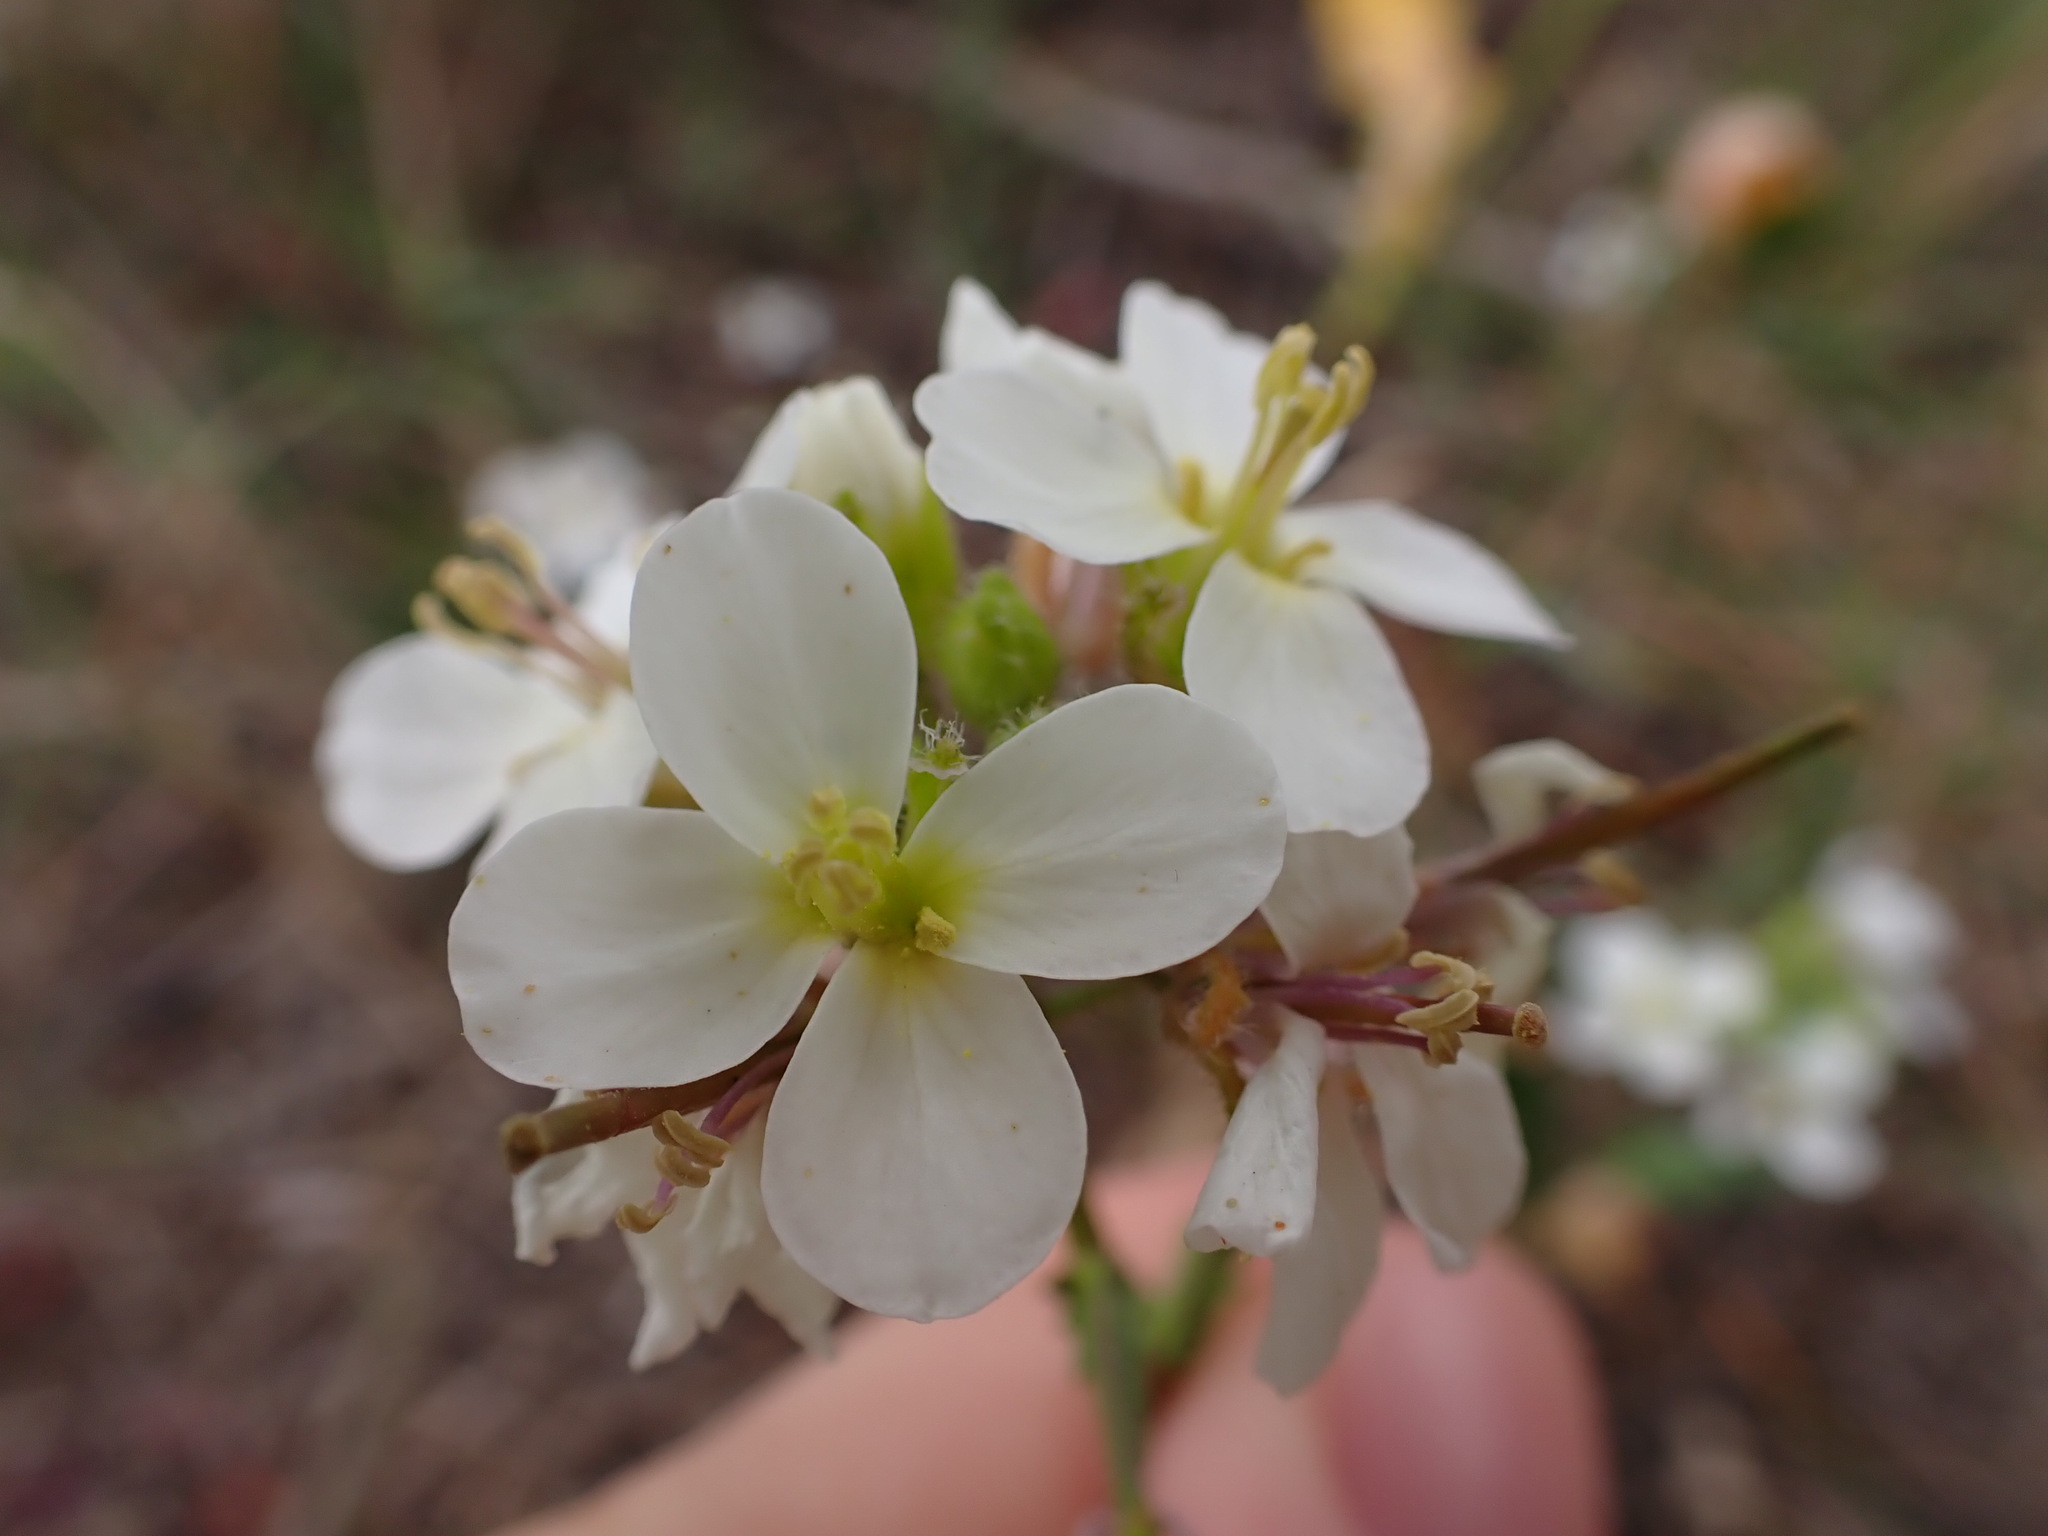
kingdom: Plantae
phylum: Tracheophyta
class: Magnoliopsida
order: Brassicales
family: Brassicaceae
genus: Diplotaxis
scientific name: Diplotaxis erucoides
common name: White rocket
